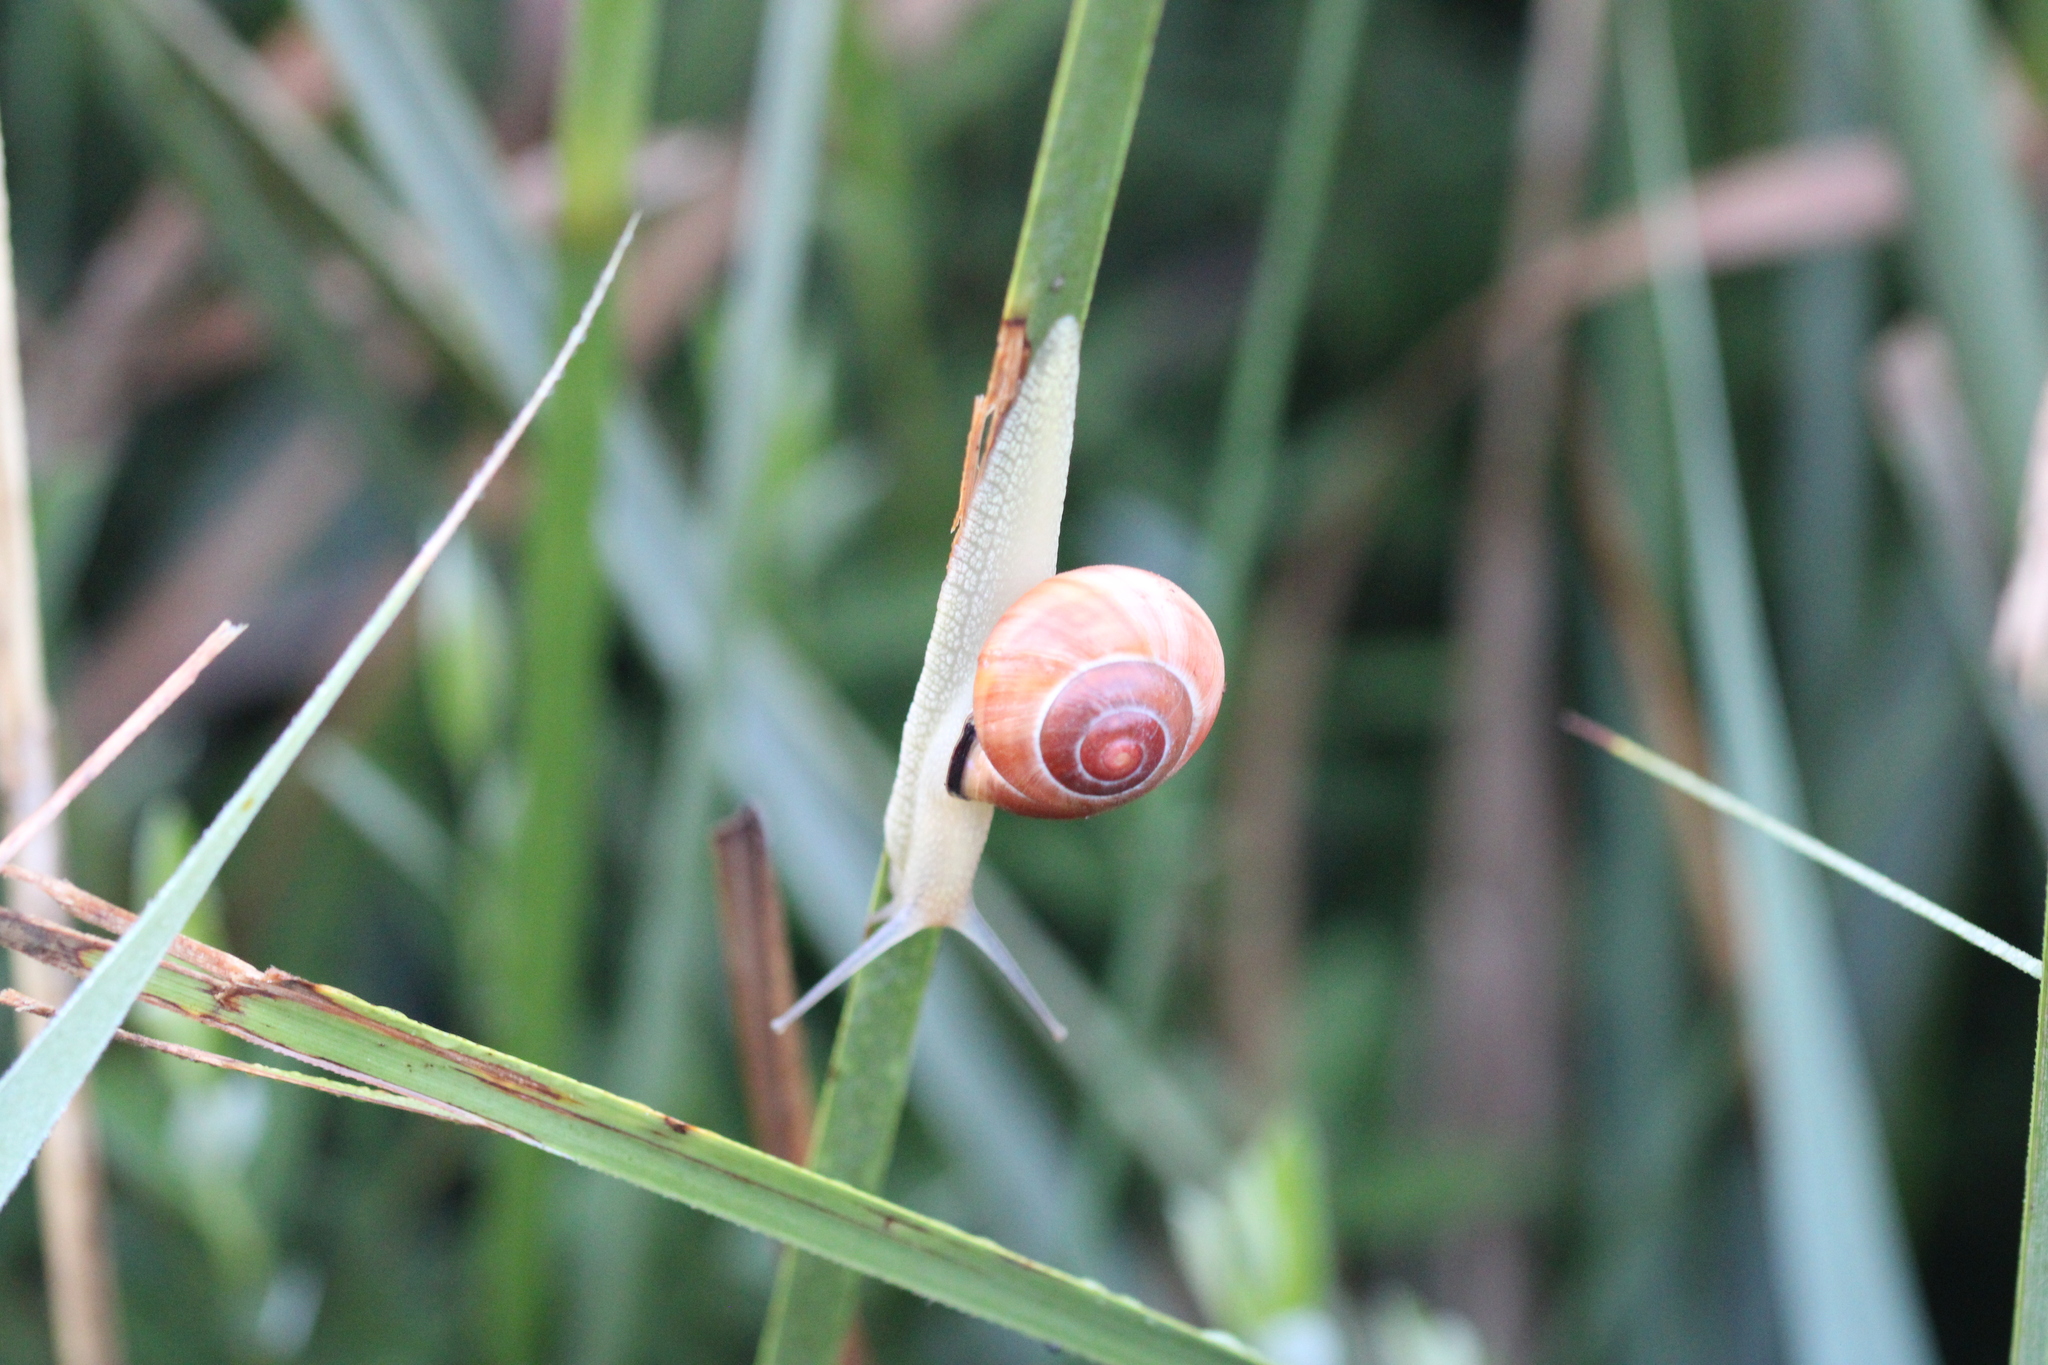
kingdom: Animalia
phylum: Mollusca
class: Gastropoda
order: Stylommatophora
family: Helicidae
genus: Cepaea
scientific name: Cepaea nemoralis
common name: Grovesnail
